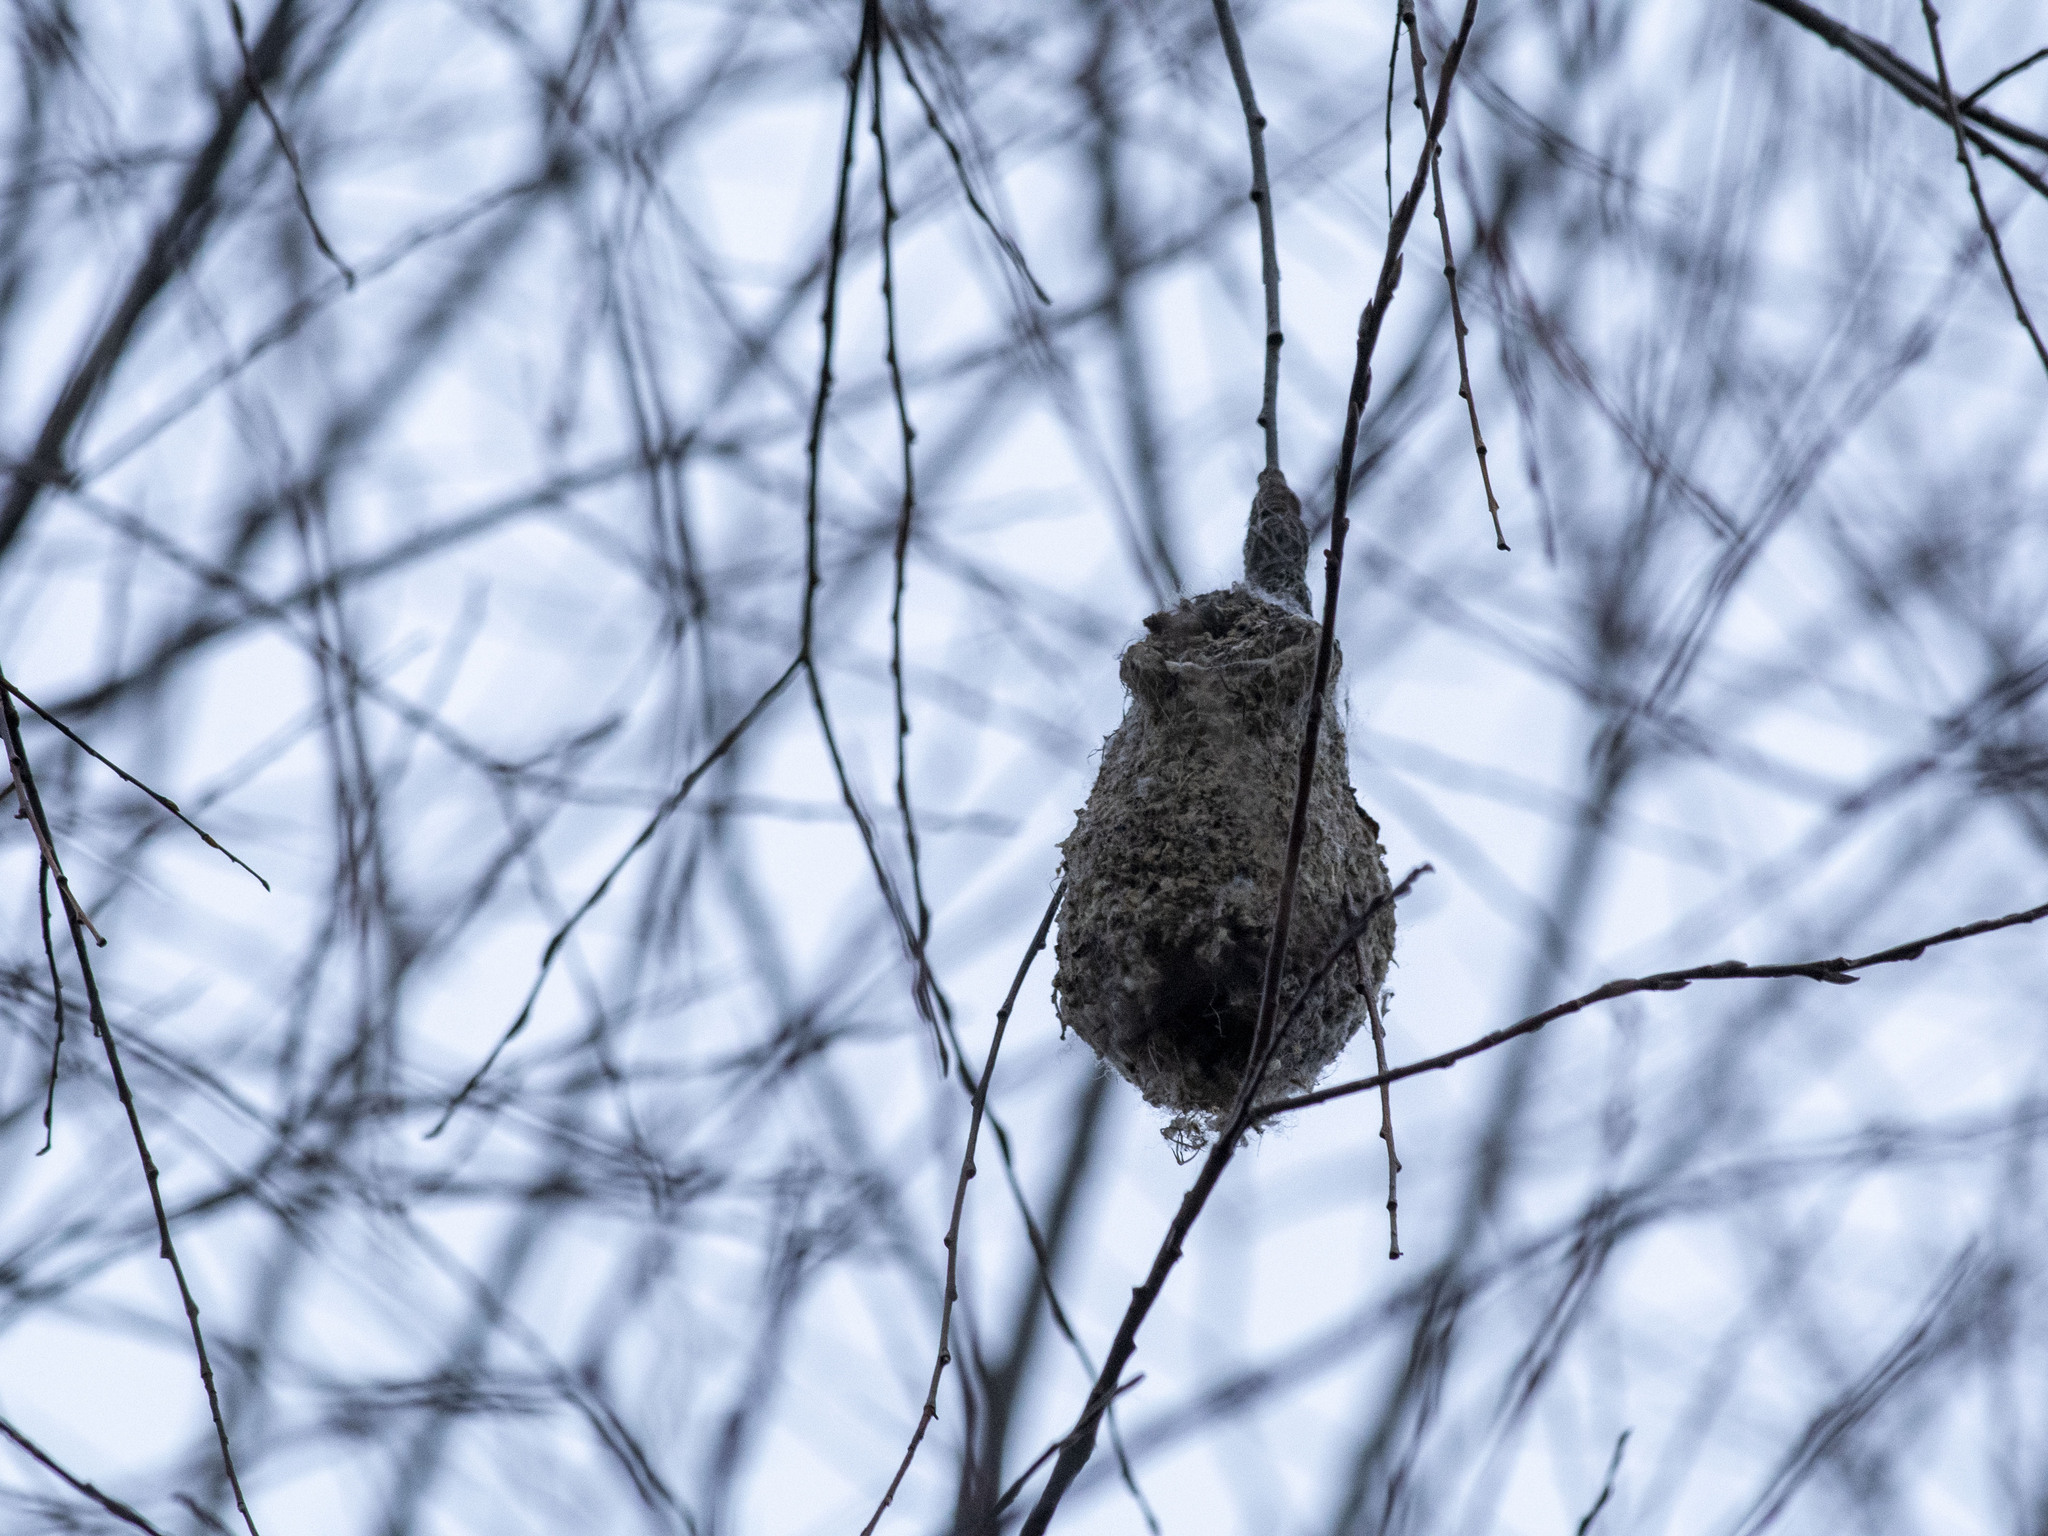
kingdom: Animalia
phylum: Chordata
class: Aves
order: Passeriformes
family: Remizidae
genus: Remiz
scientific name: Remiz pendulinus
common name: Eurasian penduline tit
